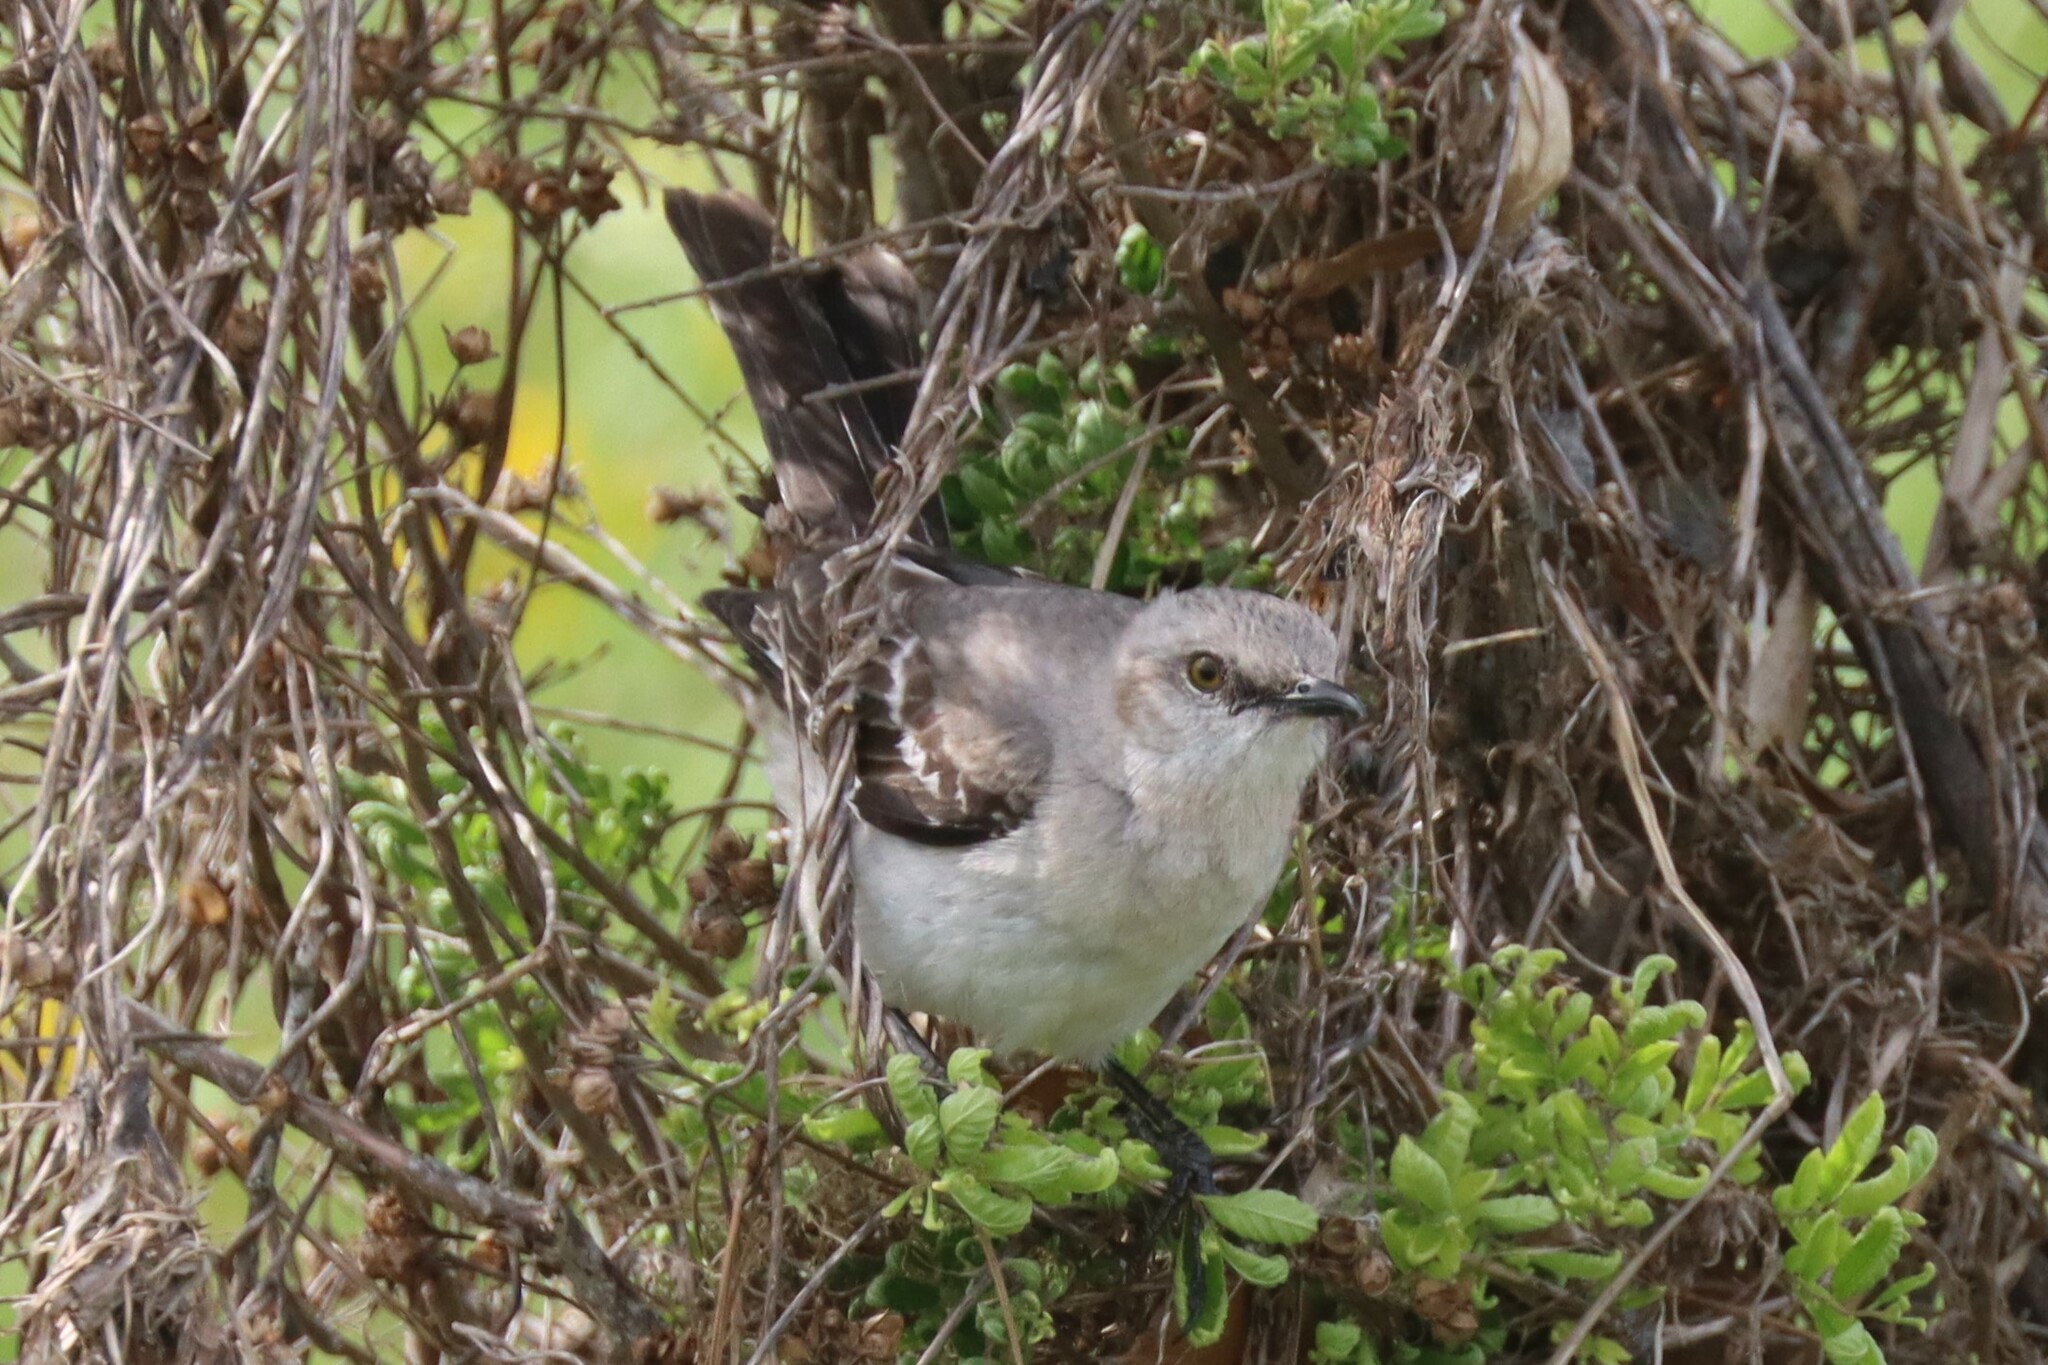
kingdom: Animalia
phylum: Chordata
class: Aves
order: Passeriformes
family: Mimidae
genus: Mimus
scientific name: Mimus polyglottos
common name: Northern mockingbird
